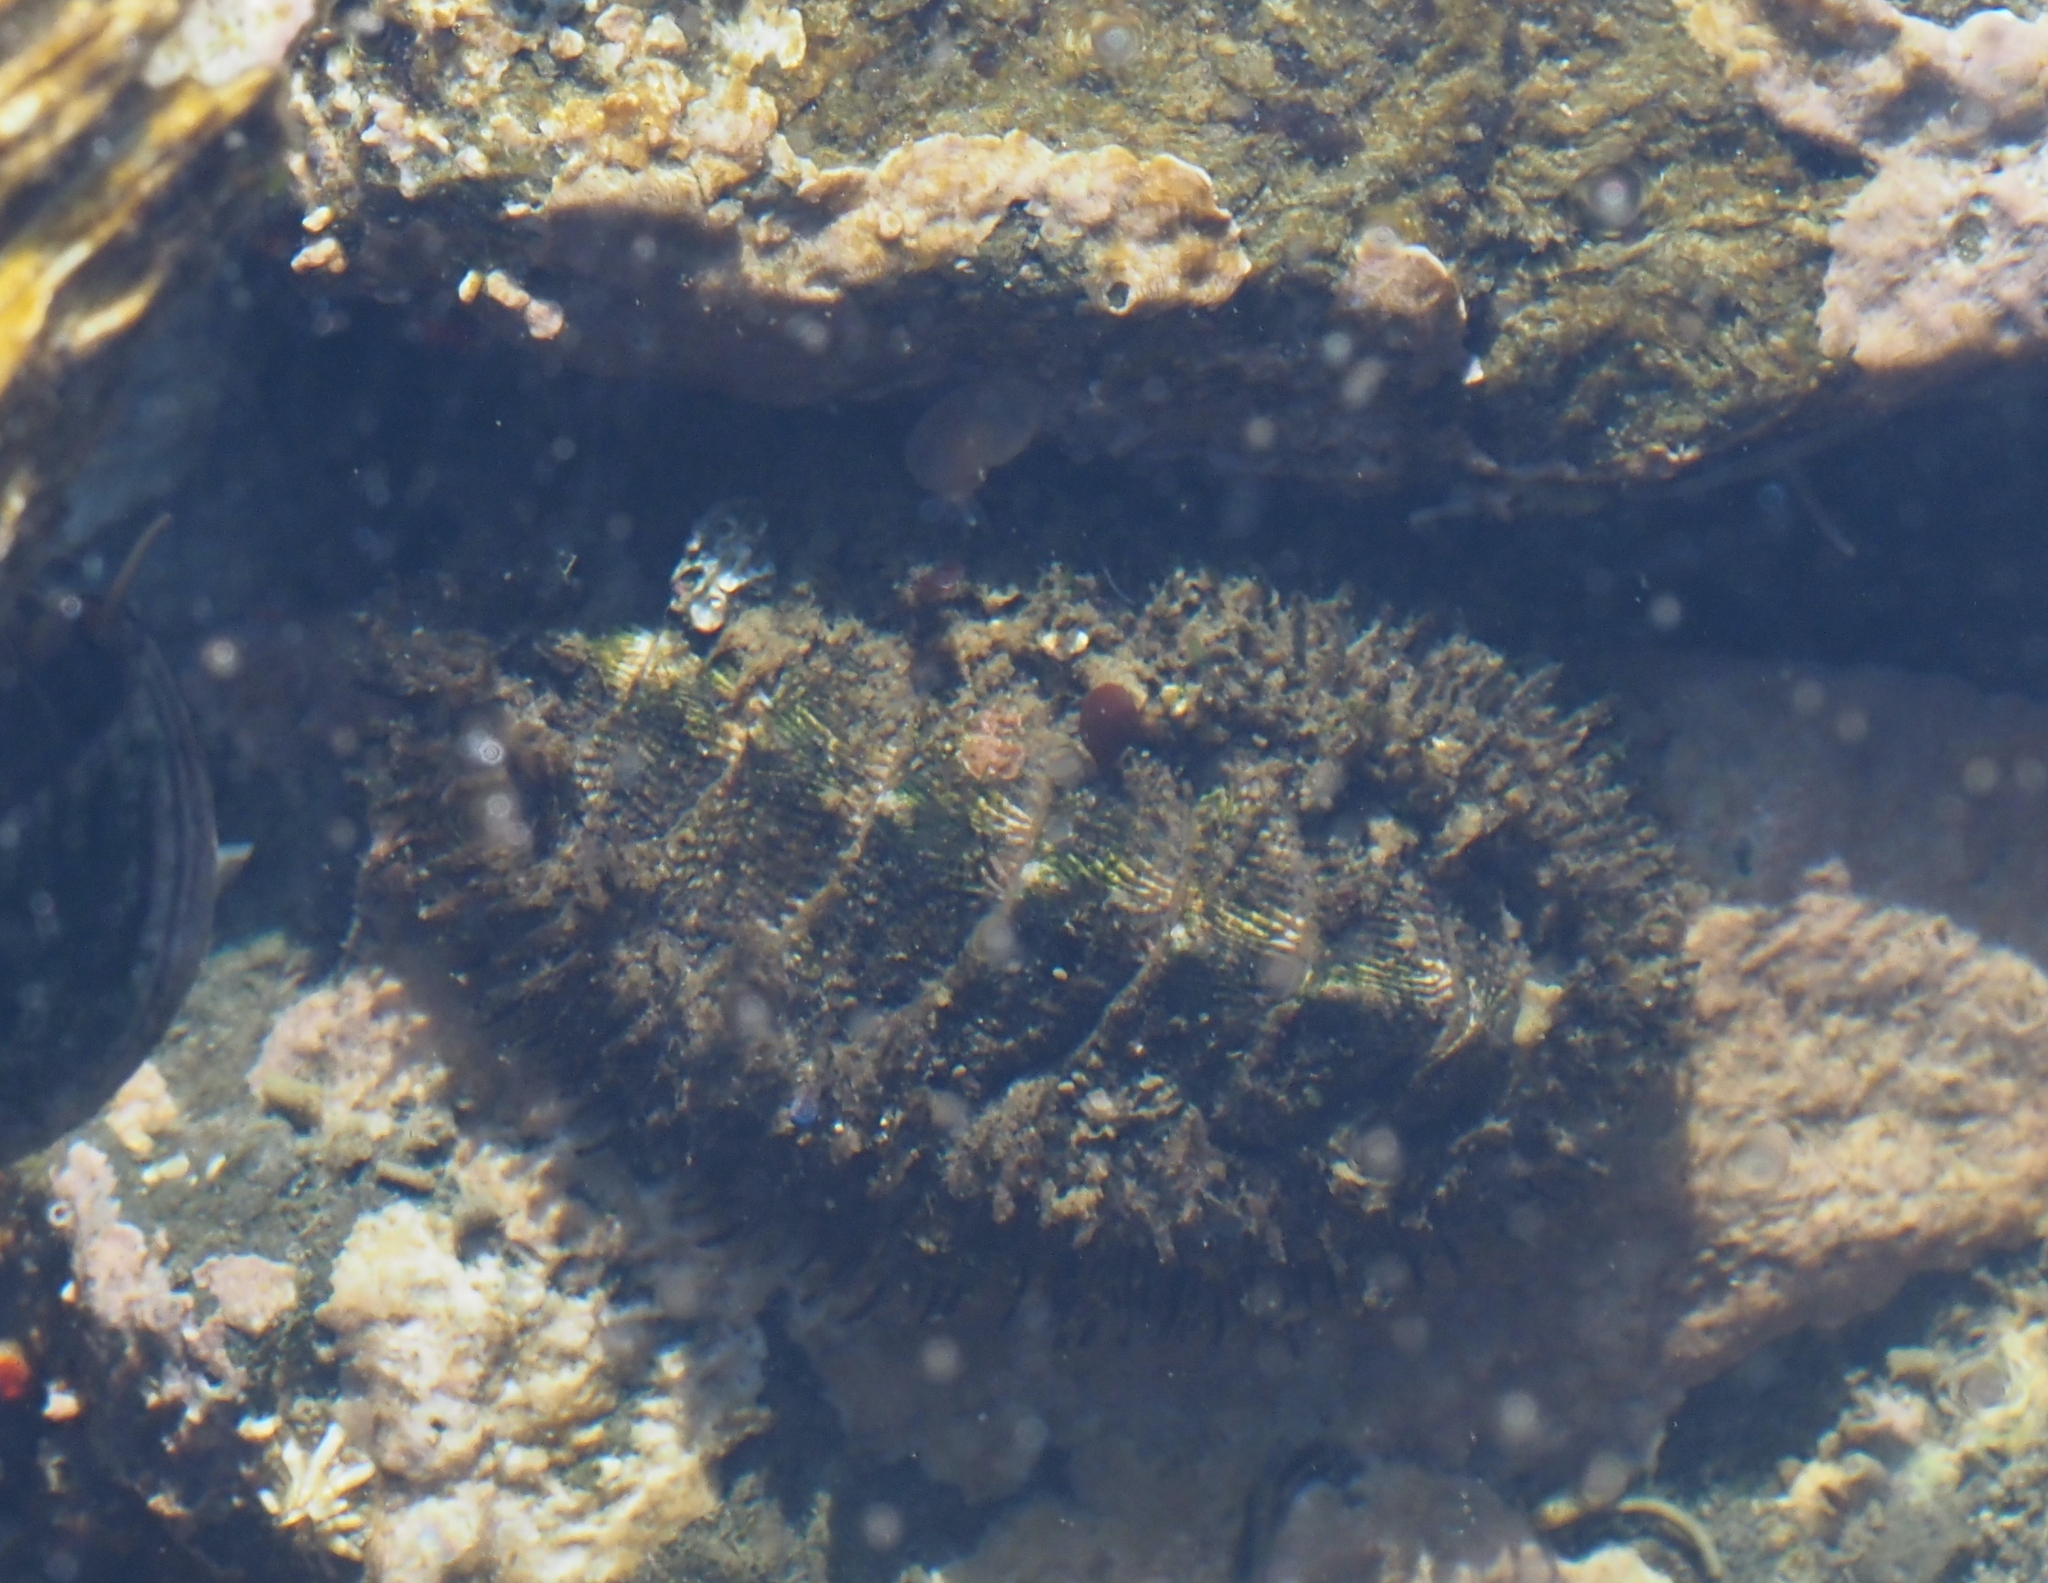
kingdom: Animalia
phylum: Mollusca
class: Polyplacophora
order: Chitonida
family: Mopaliidae
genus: Mopalia
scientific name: Mopalia muscosa
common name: Mossy chiton
